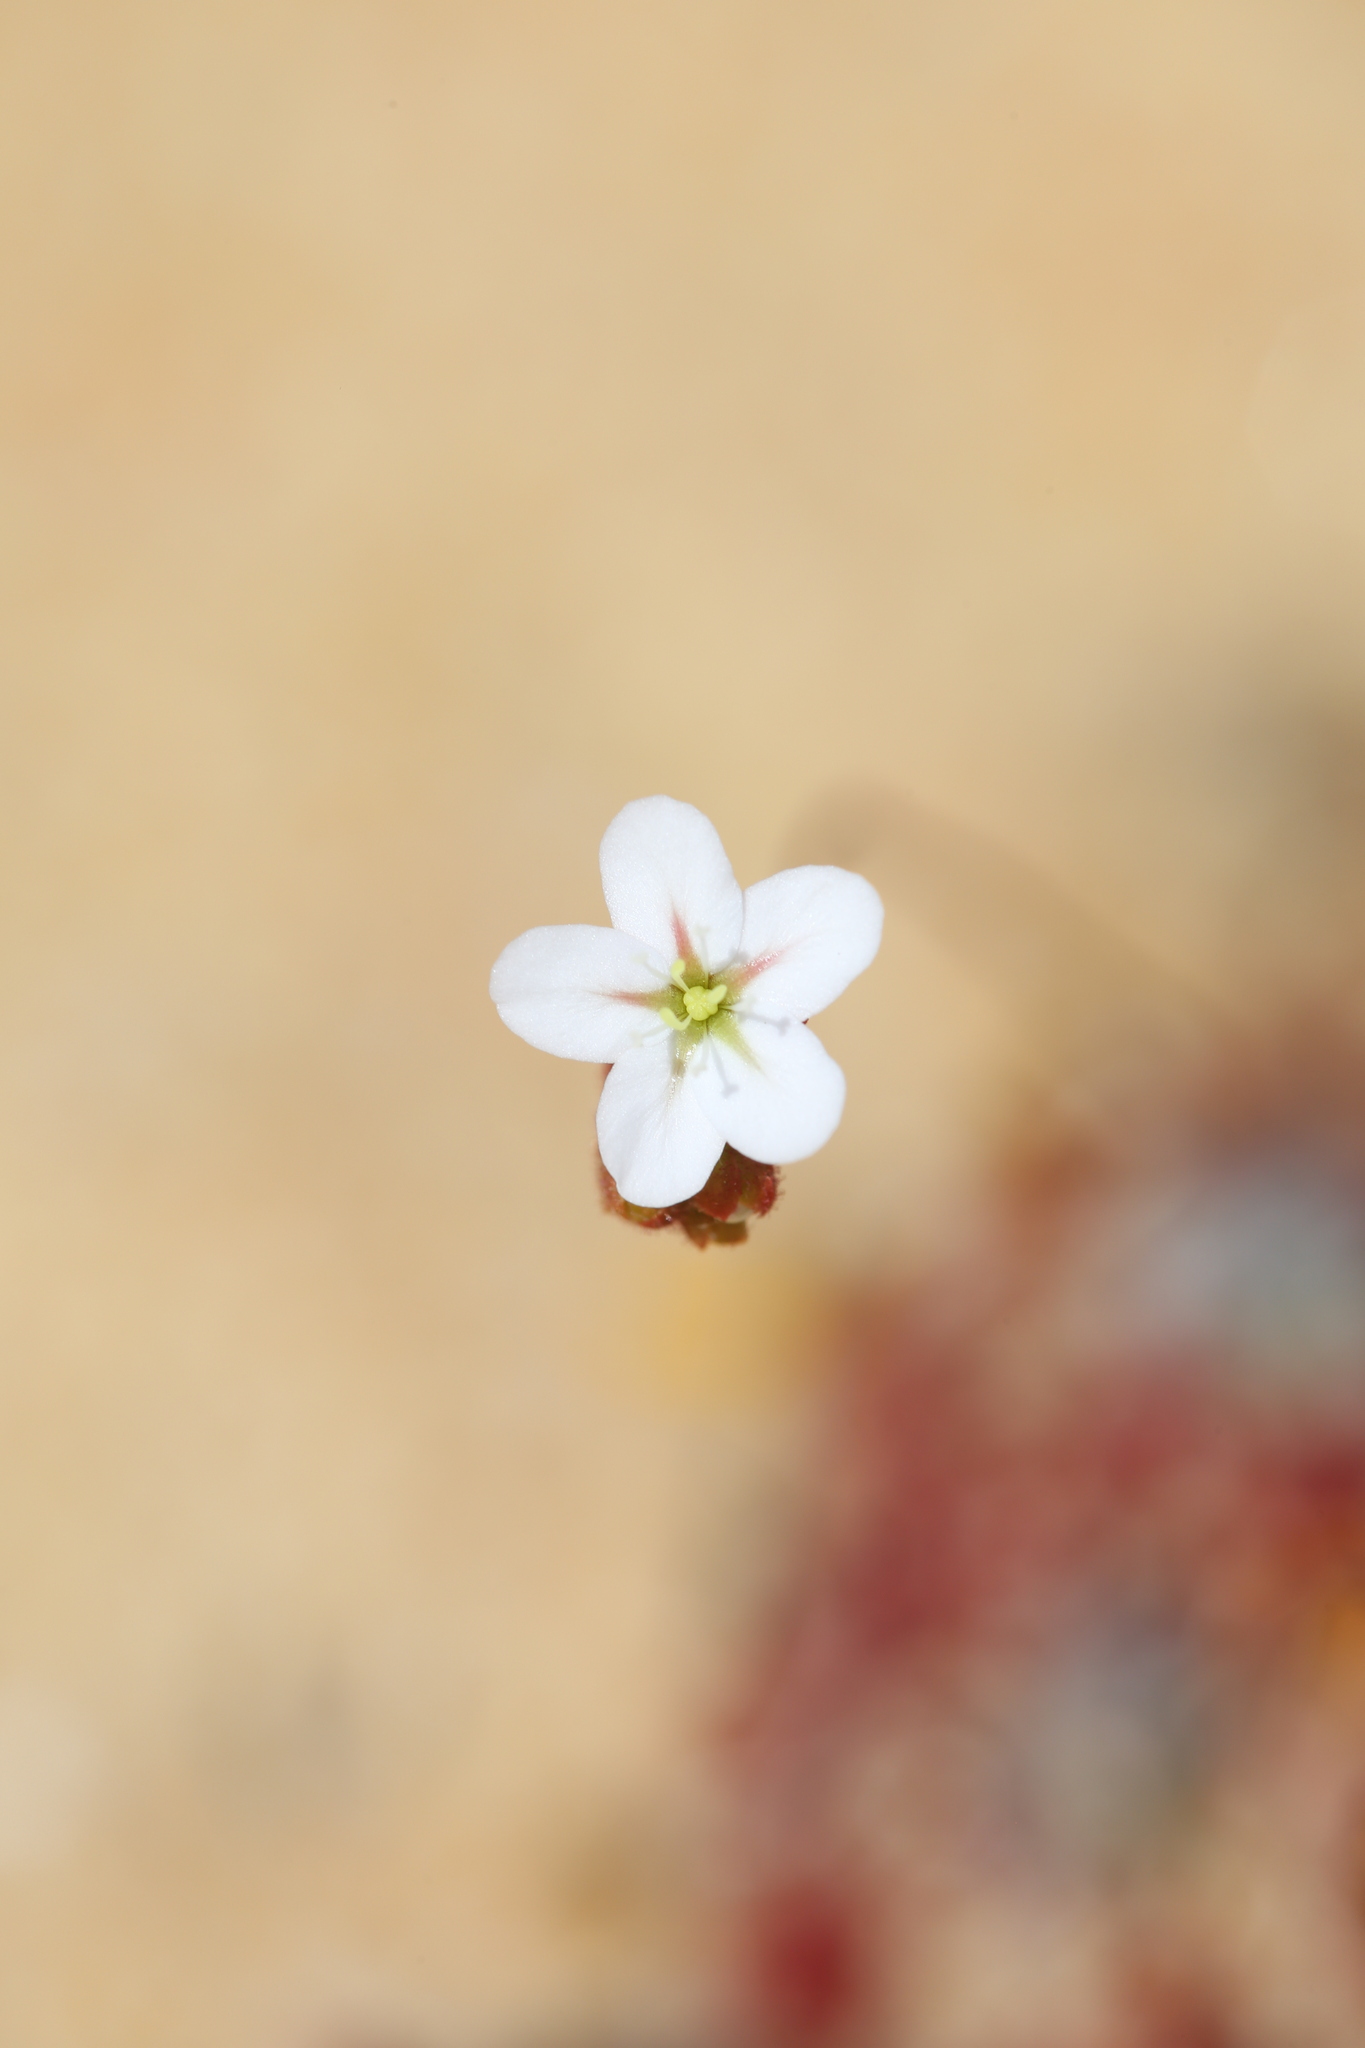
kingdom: Plantae
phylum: Tracheophyta
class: Magnoliopsida
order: Caryophyllales
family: Droseraceae
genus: Drosera
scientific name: Drosera rechingeri
